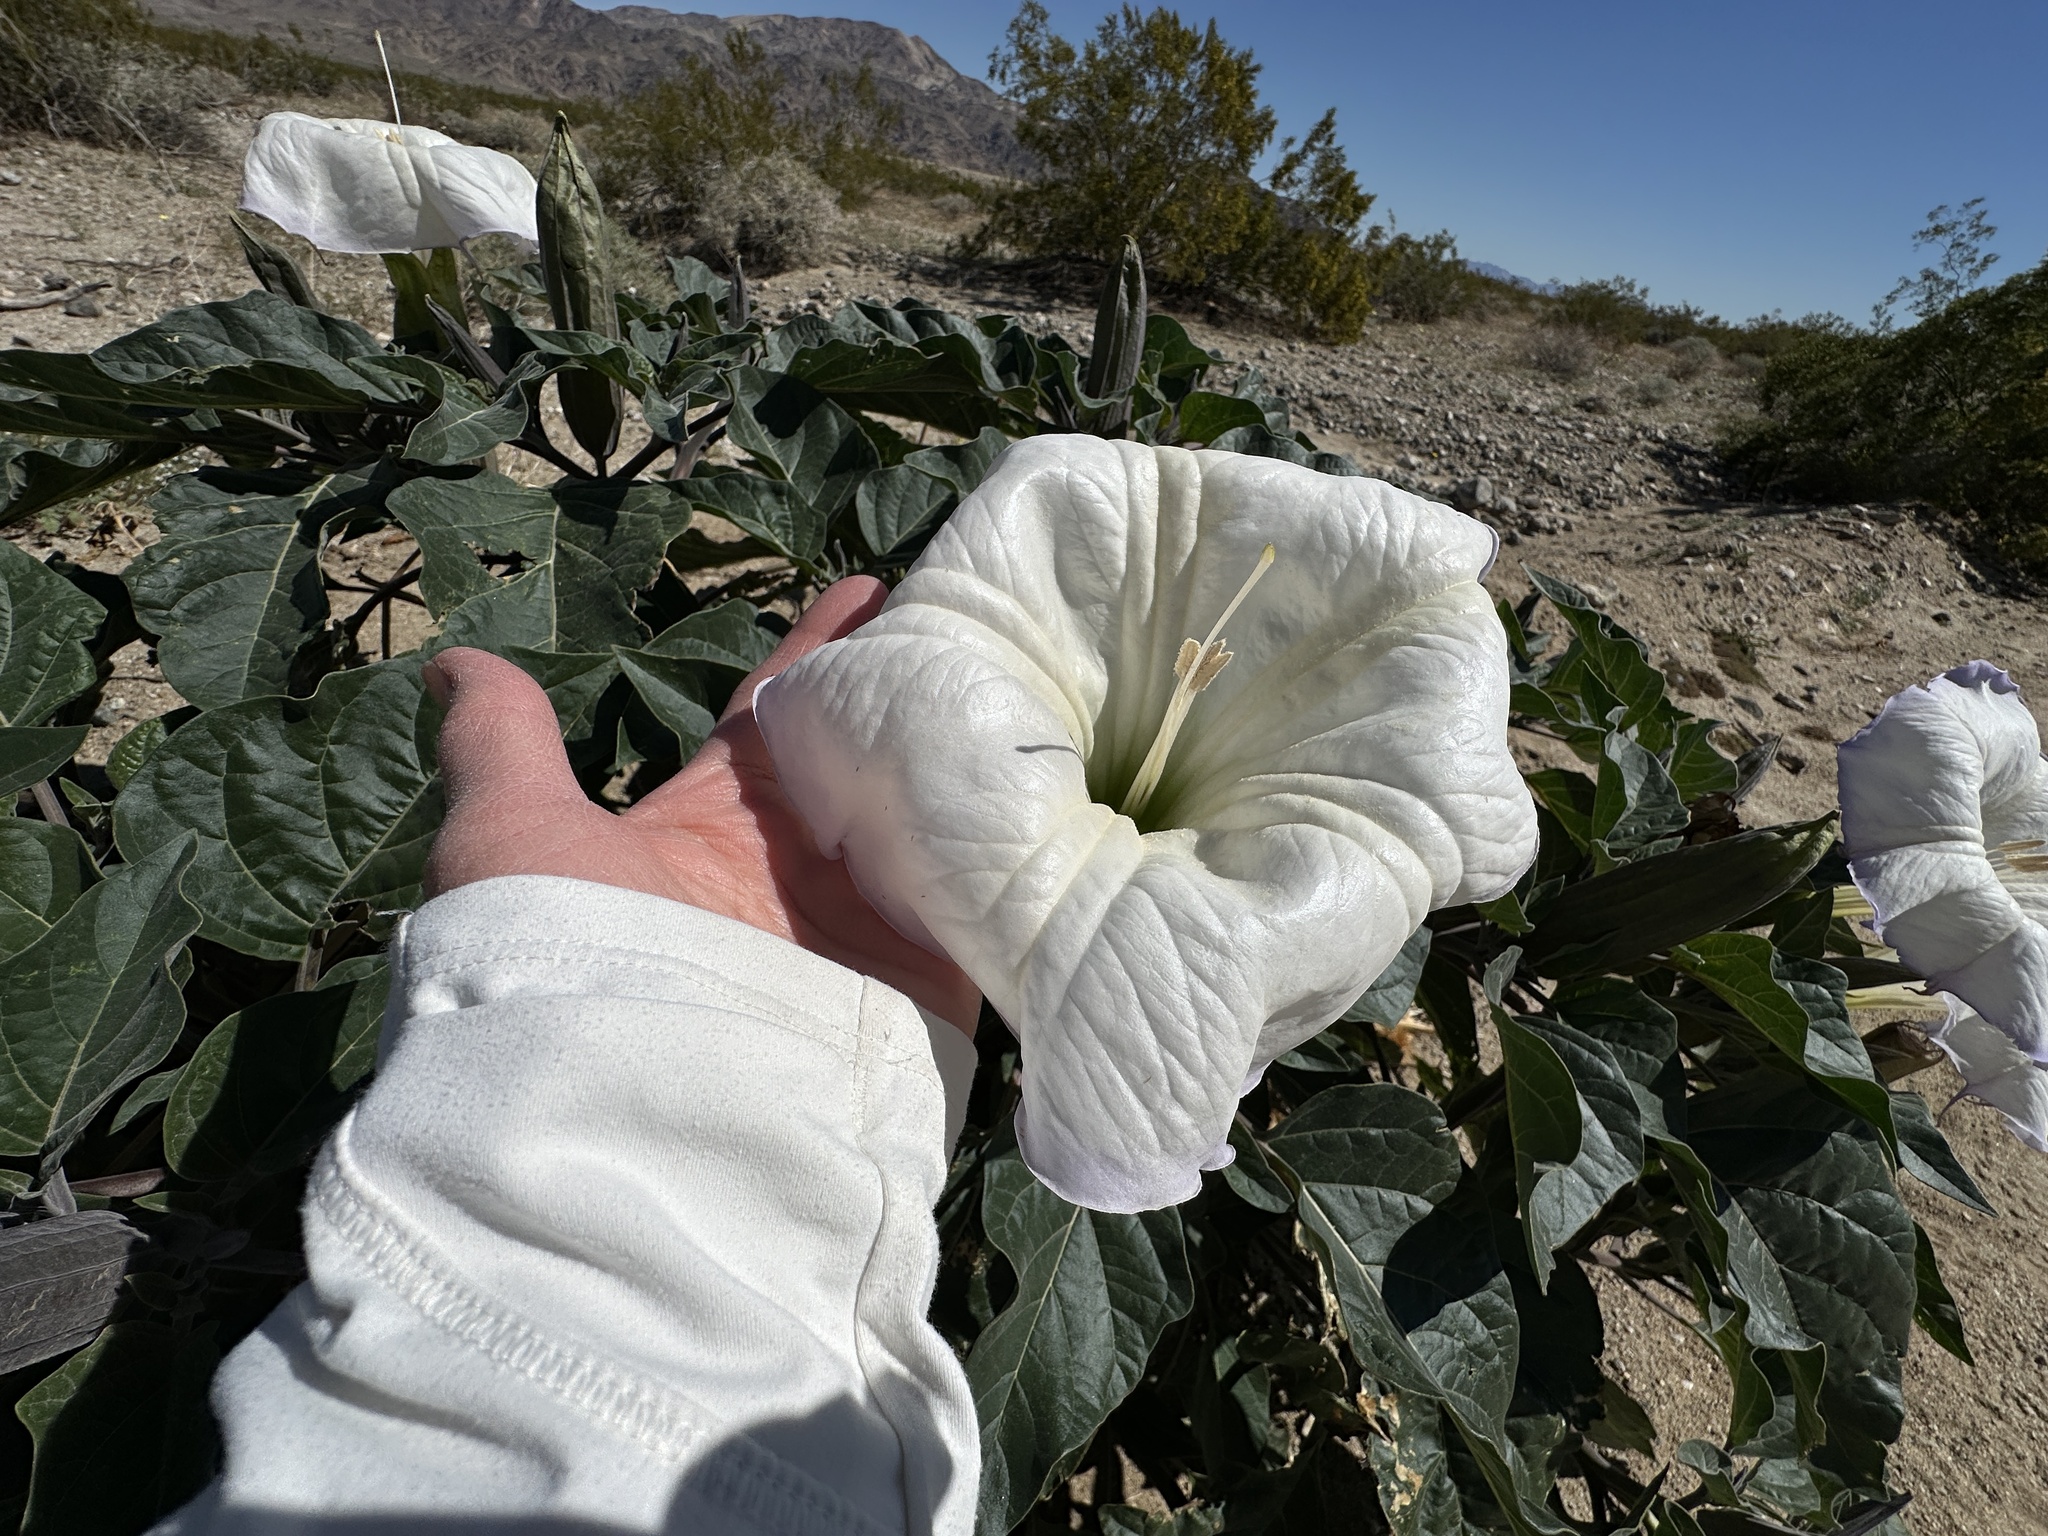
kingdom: Plantae
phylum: Tracheophyta
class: Magnoliopsida
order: Solanales
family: Solanaceae
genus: Datura
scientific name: Datura wrightii
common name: Sacred thorn-apple
